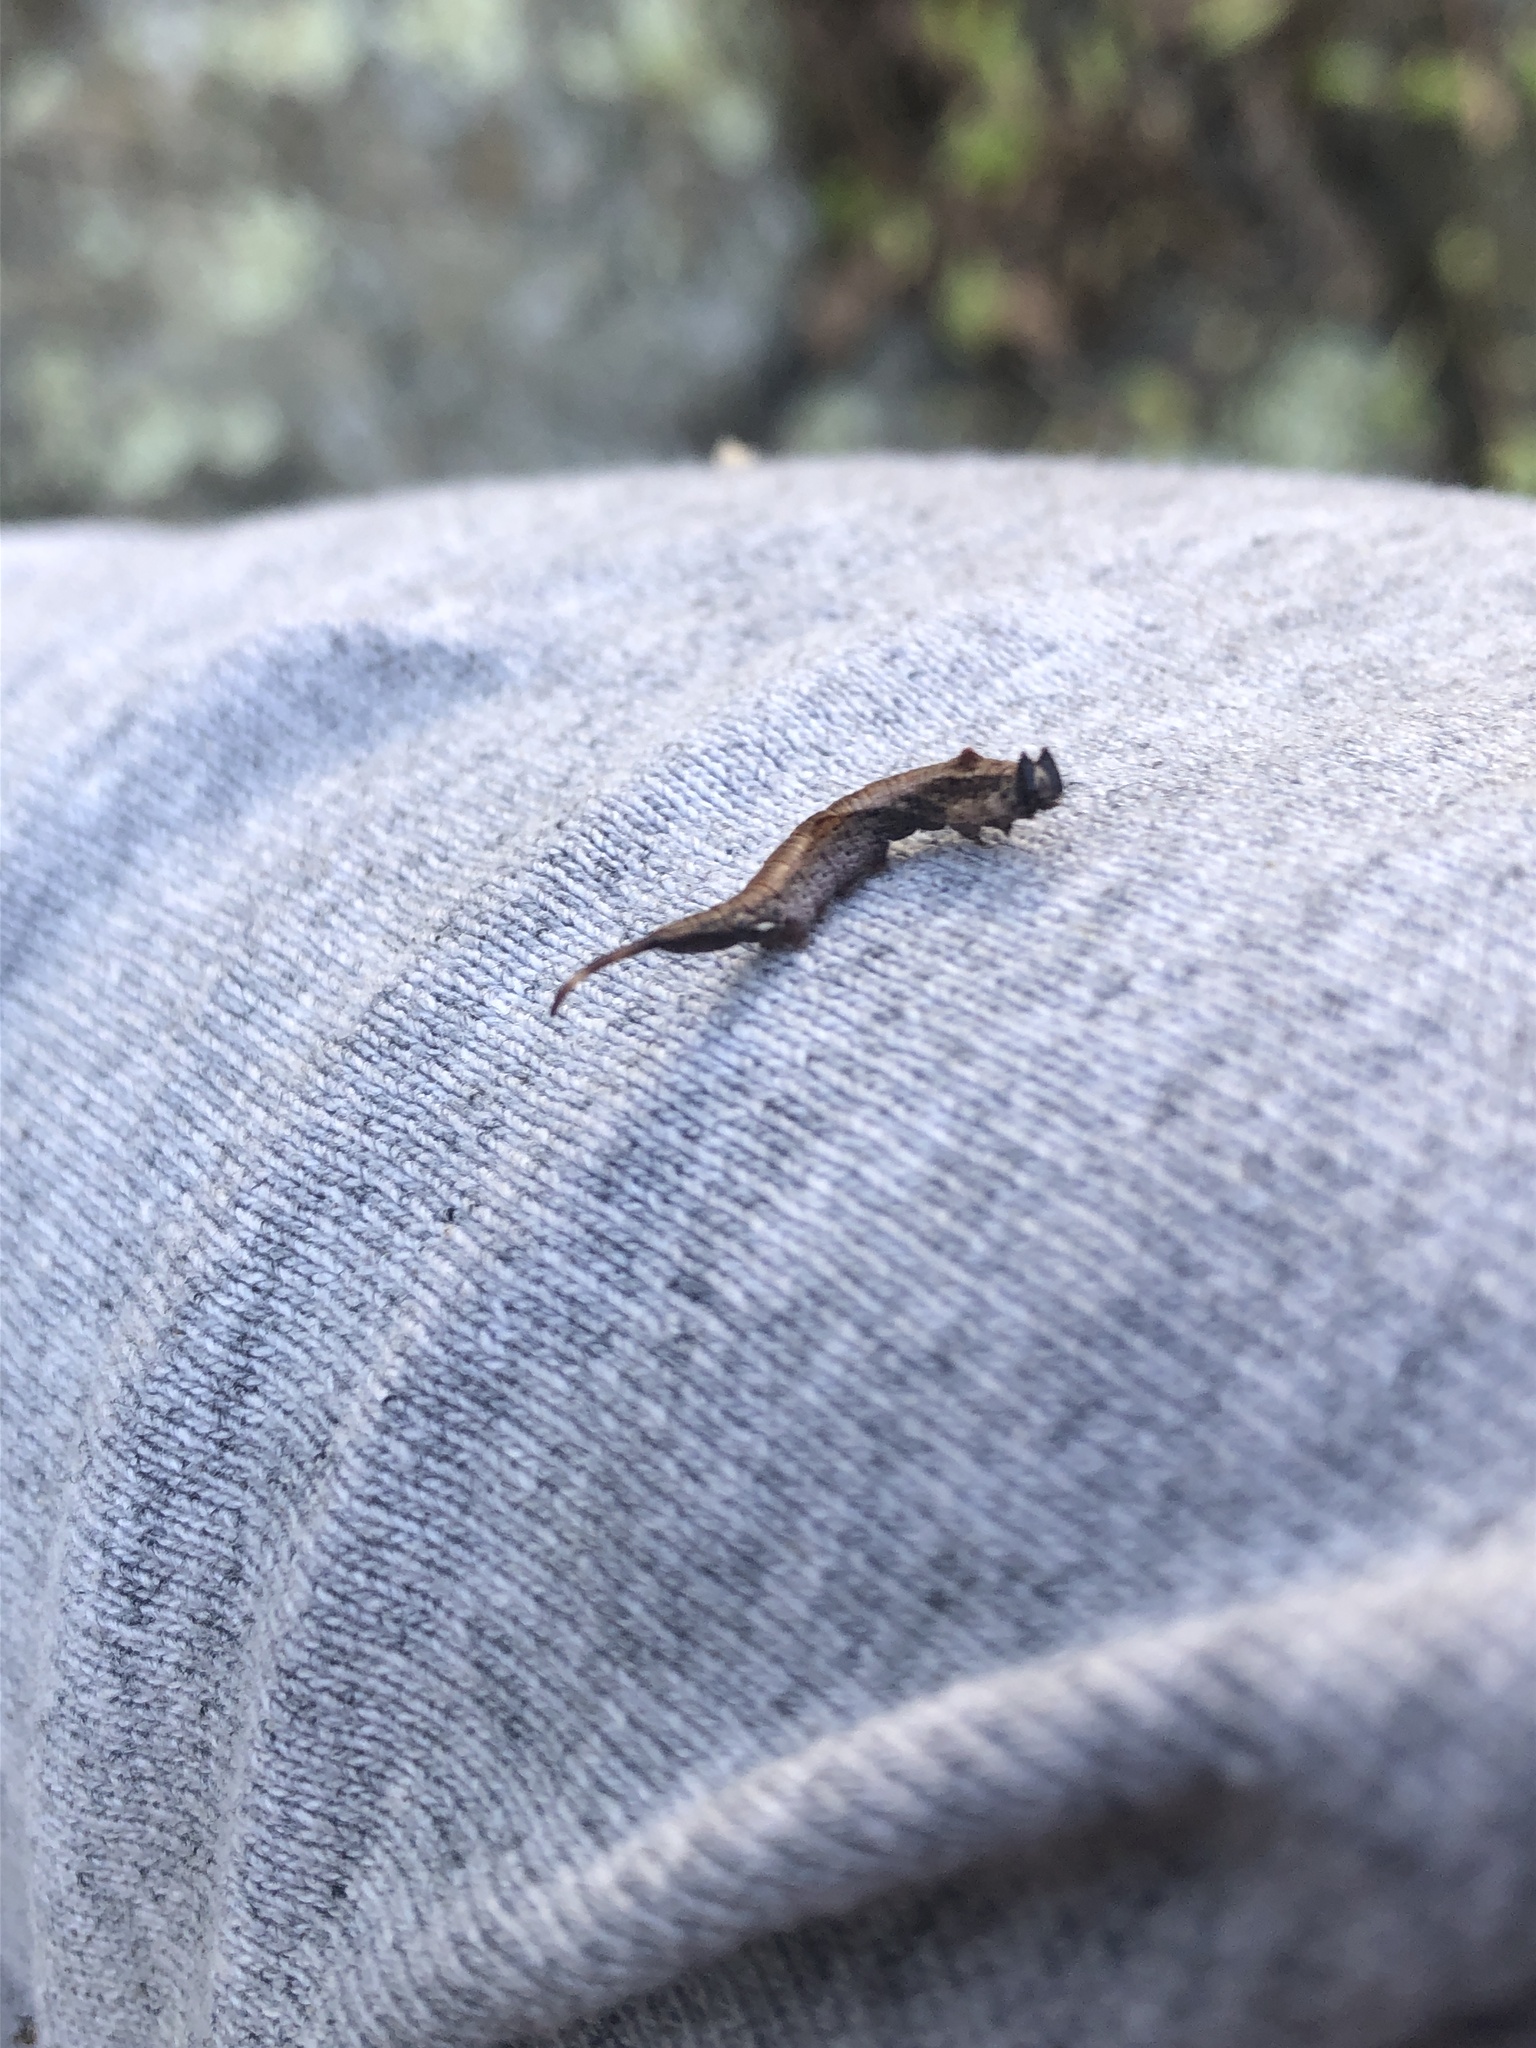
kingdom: Animalia
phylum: Arthropoda
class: Insecta
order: Lepidoptera
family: Drepanidae
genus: Oreta
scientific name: Oreta rosea
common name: Rose hooktip
